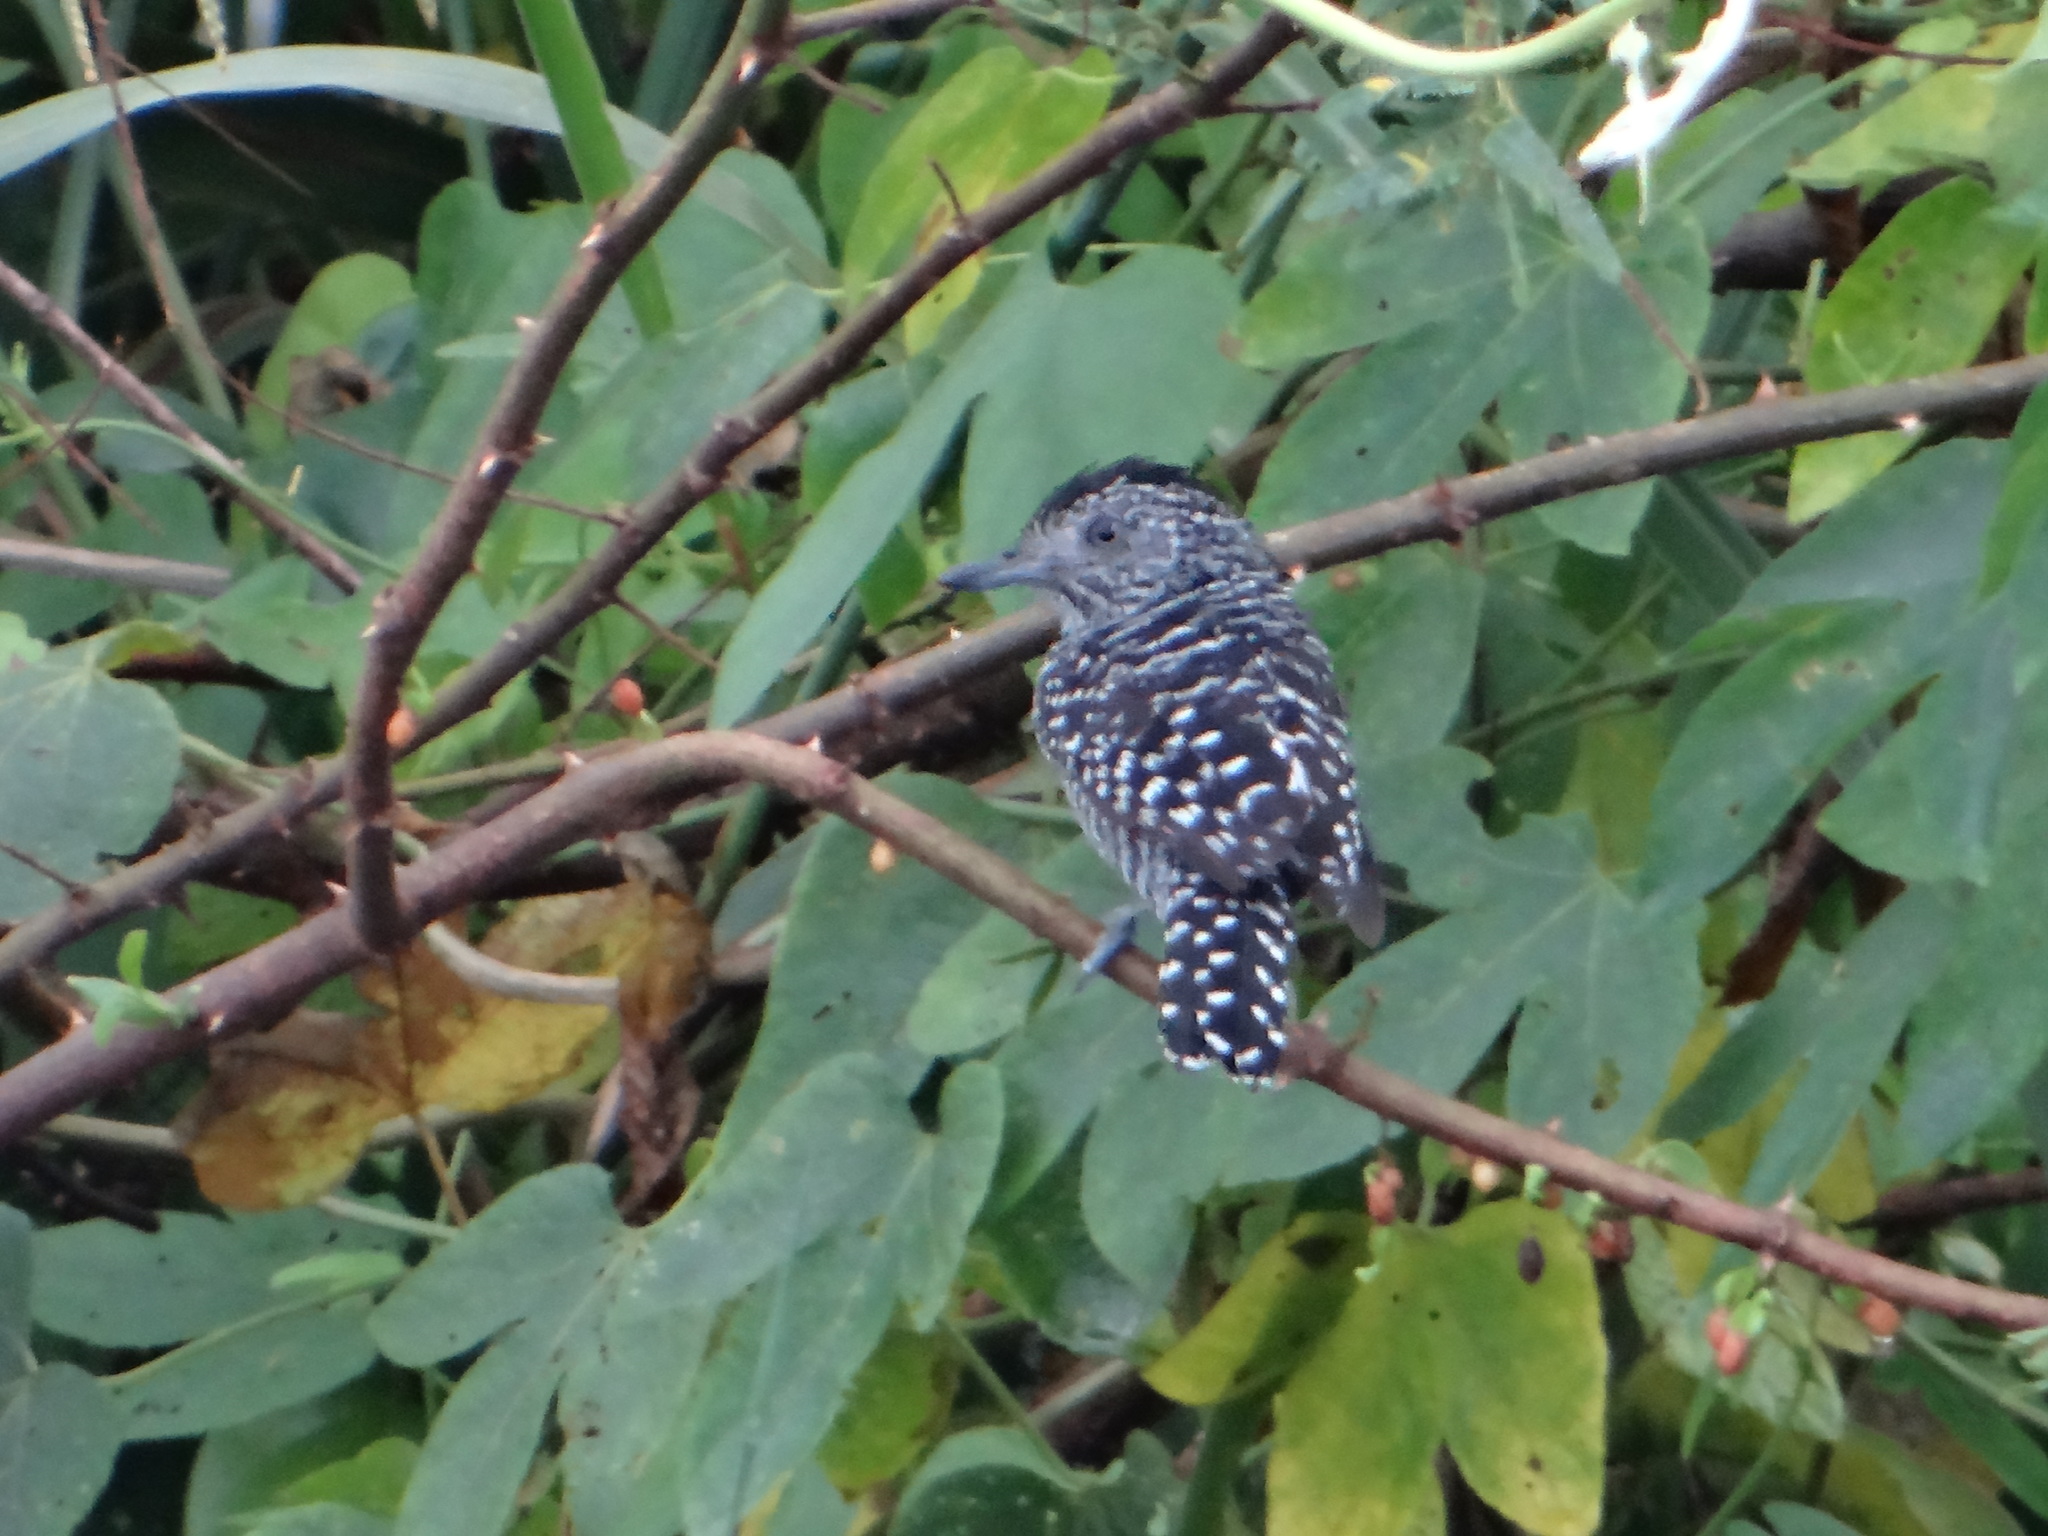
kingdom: Animalia
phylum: Chordata
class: Aves
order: Passeriformes
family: Thamnophilidae
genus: Thamnophilus
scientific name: Thamnophilus doliatus
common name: Barred antshrike
